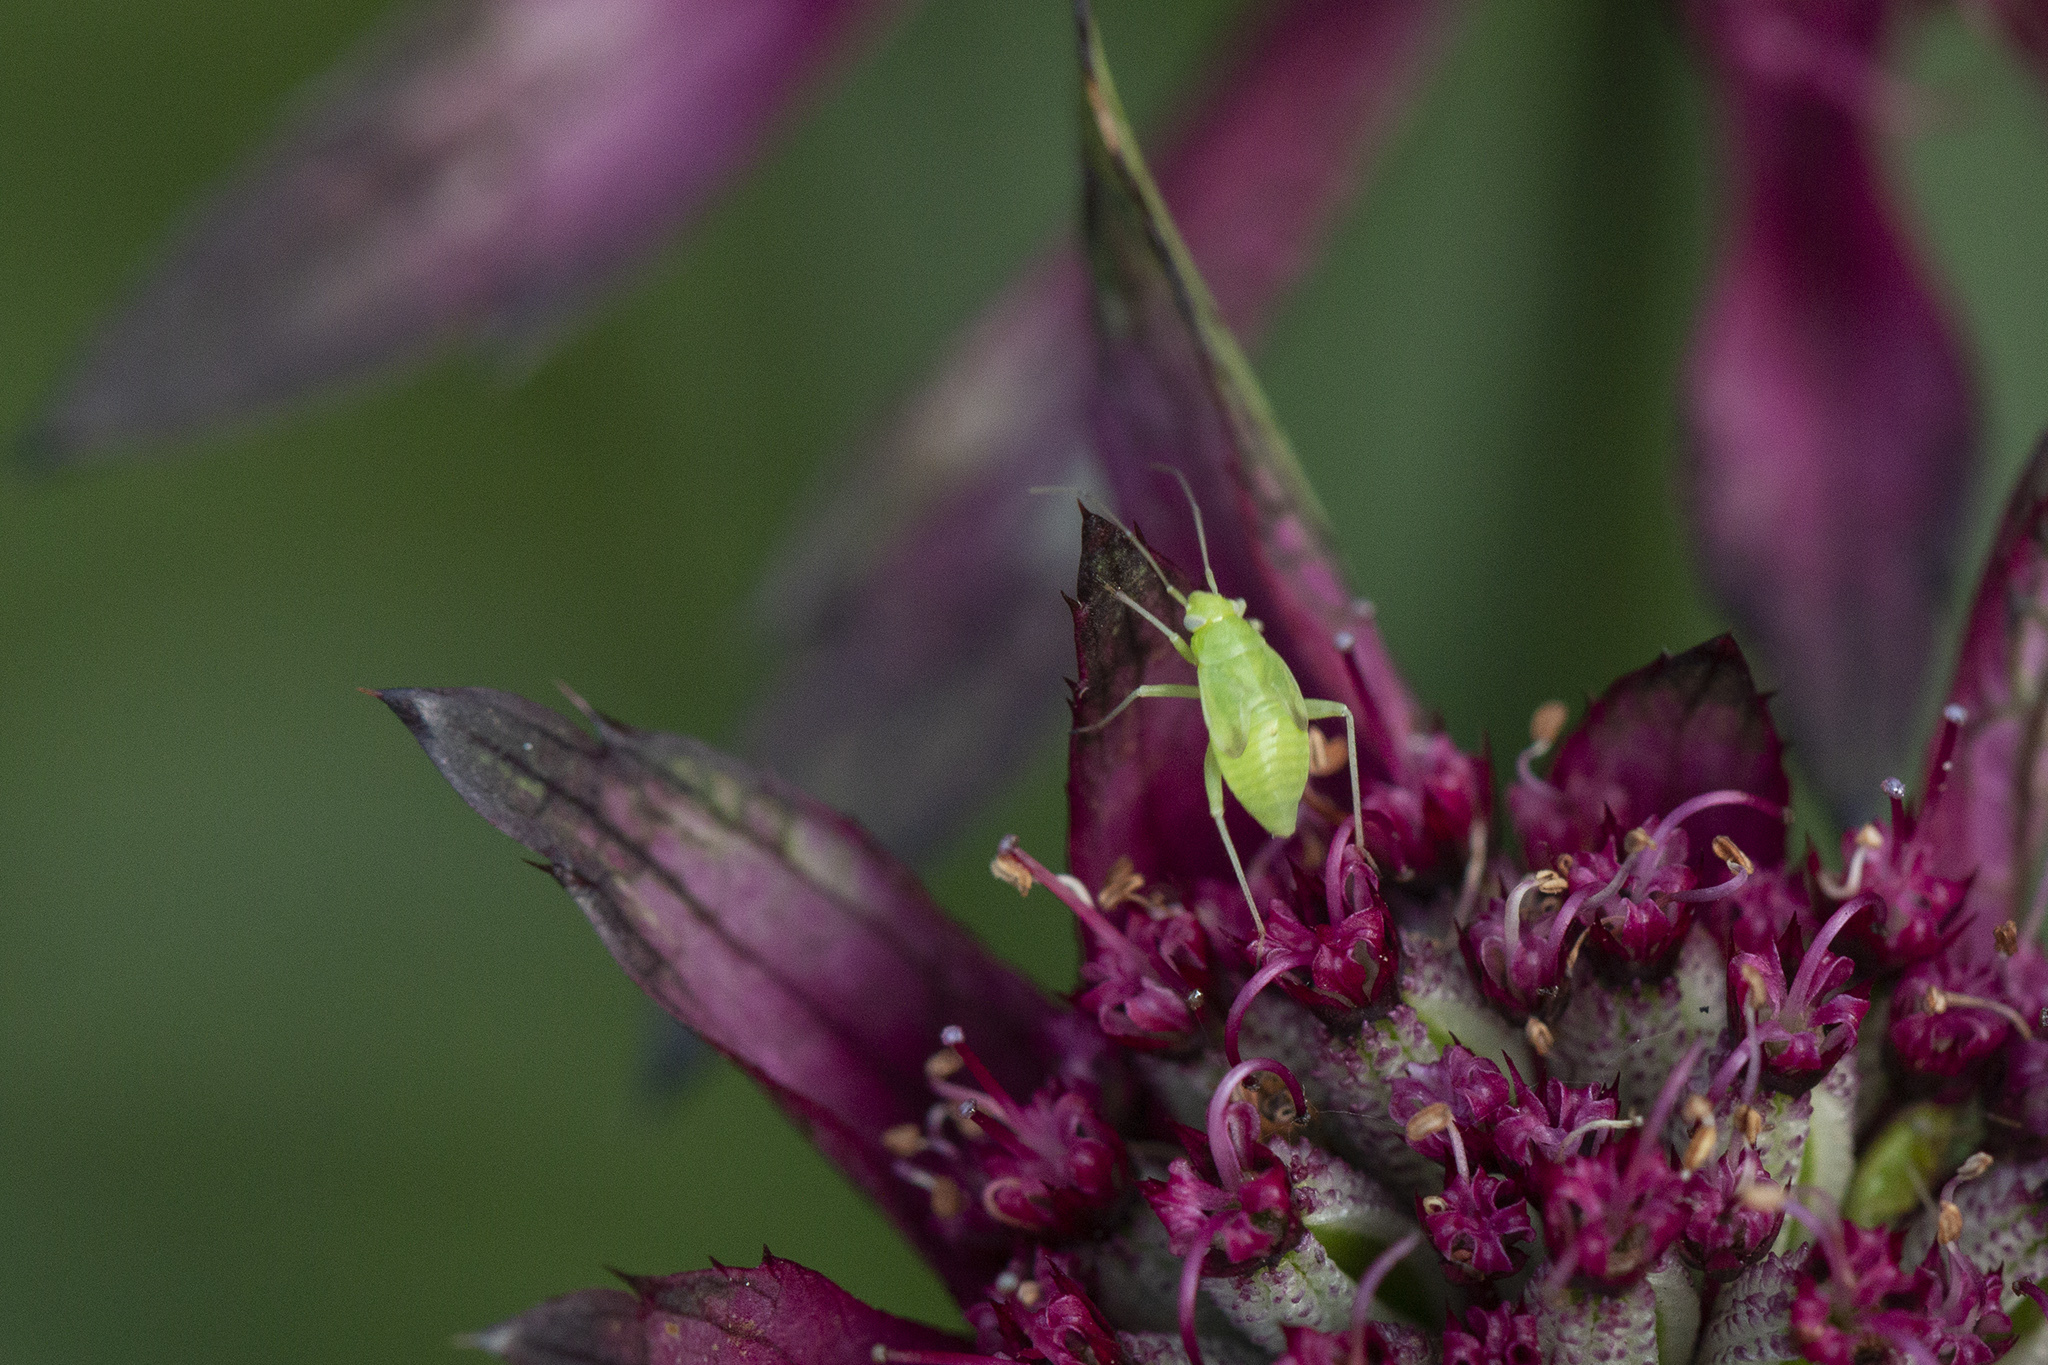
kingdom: Animalia
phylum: Arthropoda
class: Insecta
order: Hemiptera
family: Miridae
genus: Apolygus
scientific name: Apolygus spinolae
